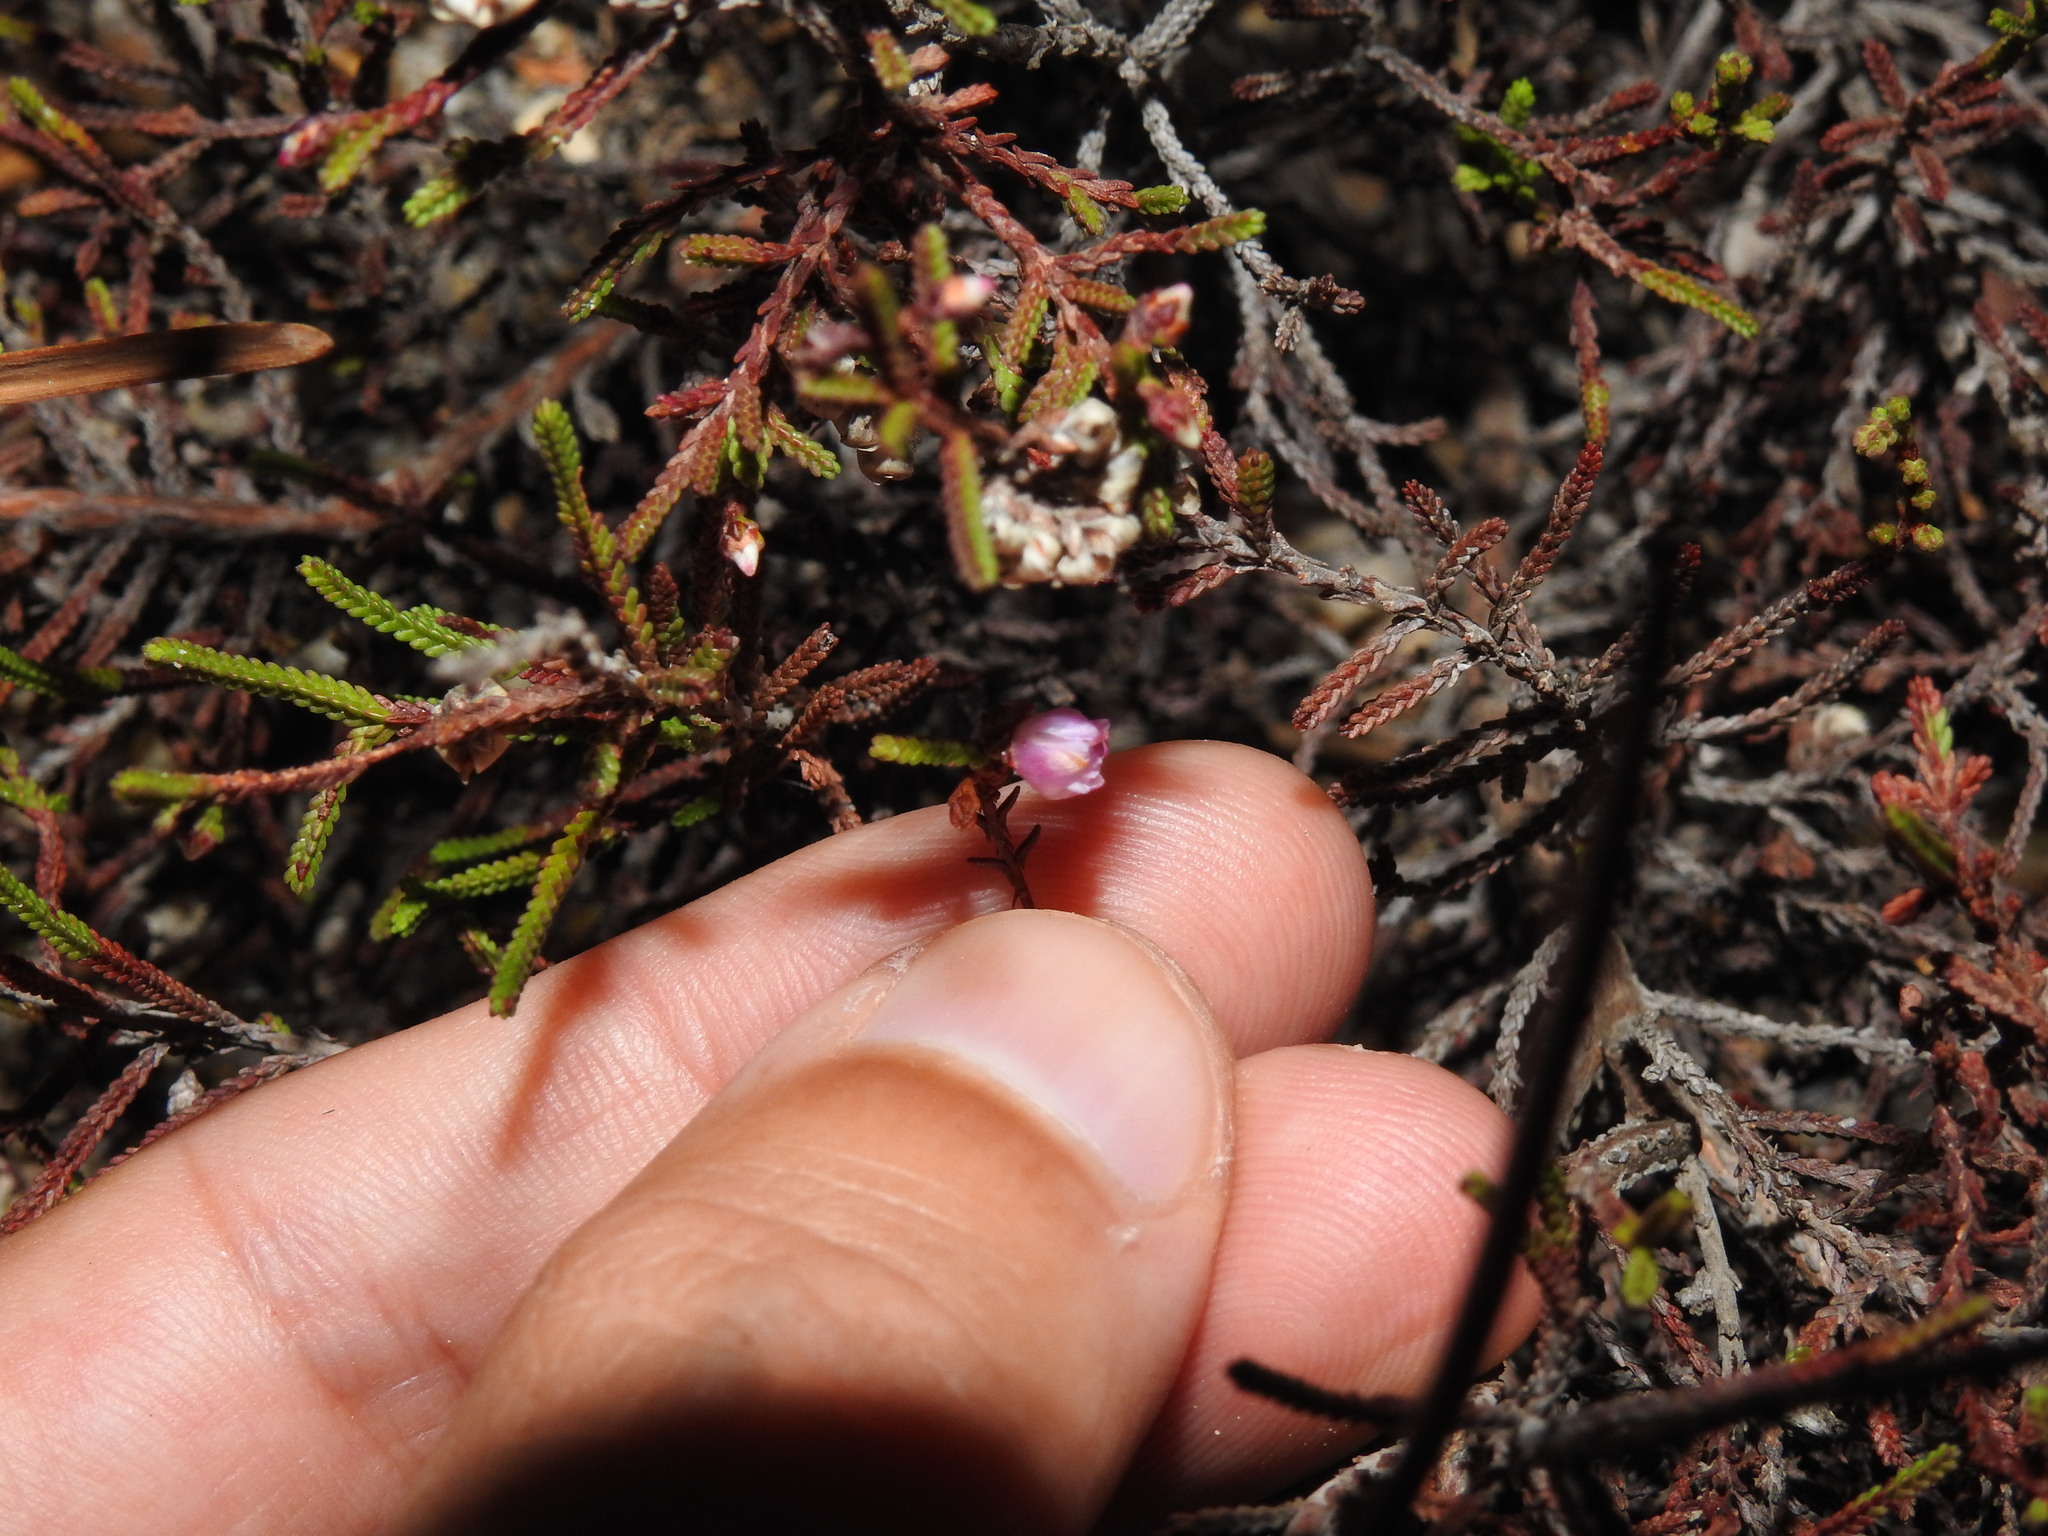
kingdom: Plantae
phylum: Tracheophyta
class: Magnoliopsida
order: Ericales
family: Ericaceae
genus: Calluna
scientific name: Calluna vulgaris
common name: Heather
